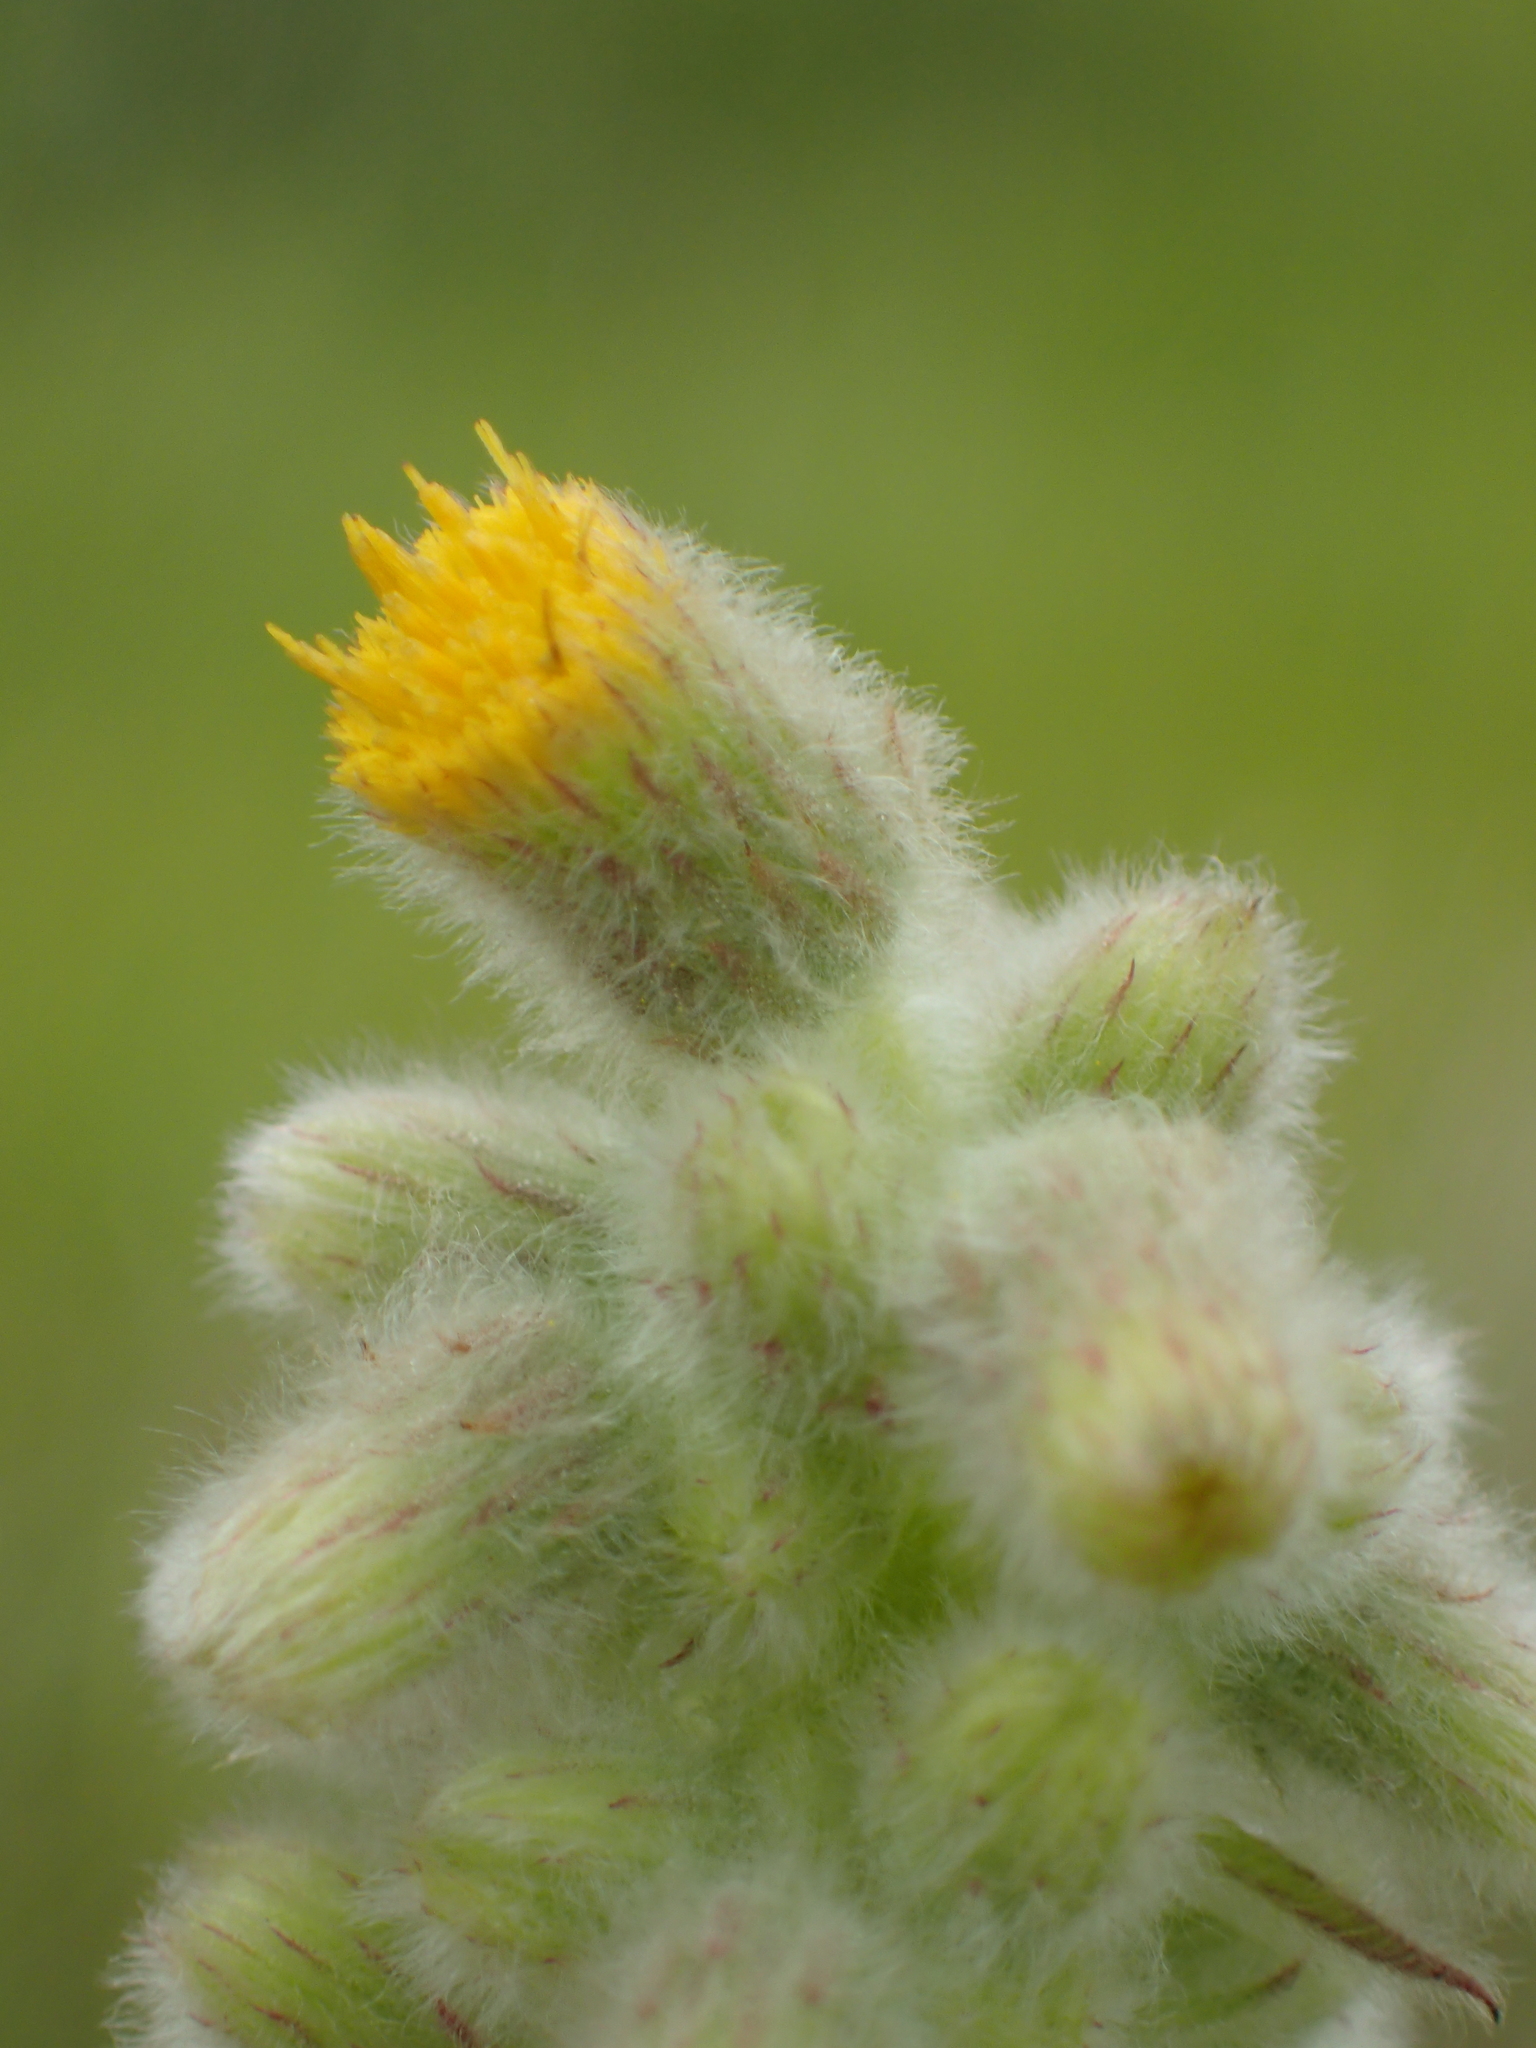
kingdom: Plantae
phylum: Tracheophyta
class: Magnoliopsida
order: Asterales
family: Asteraceae
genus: Blumea
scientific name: Blumea lacera
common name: Malay blumea
